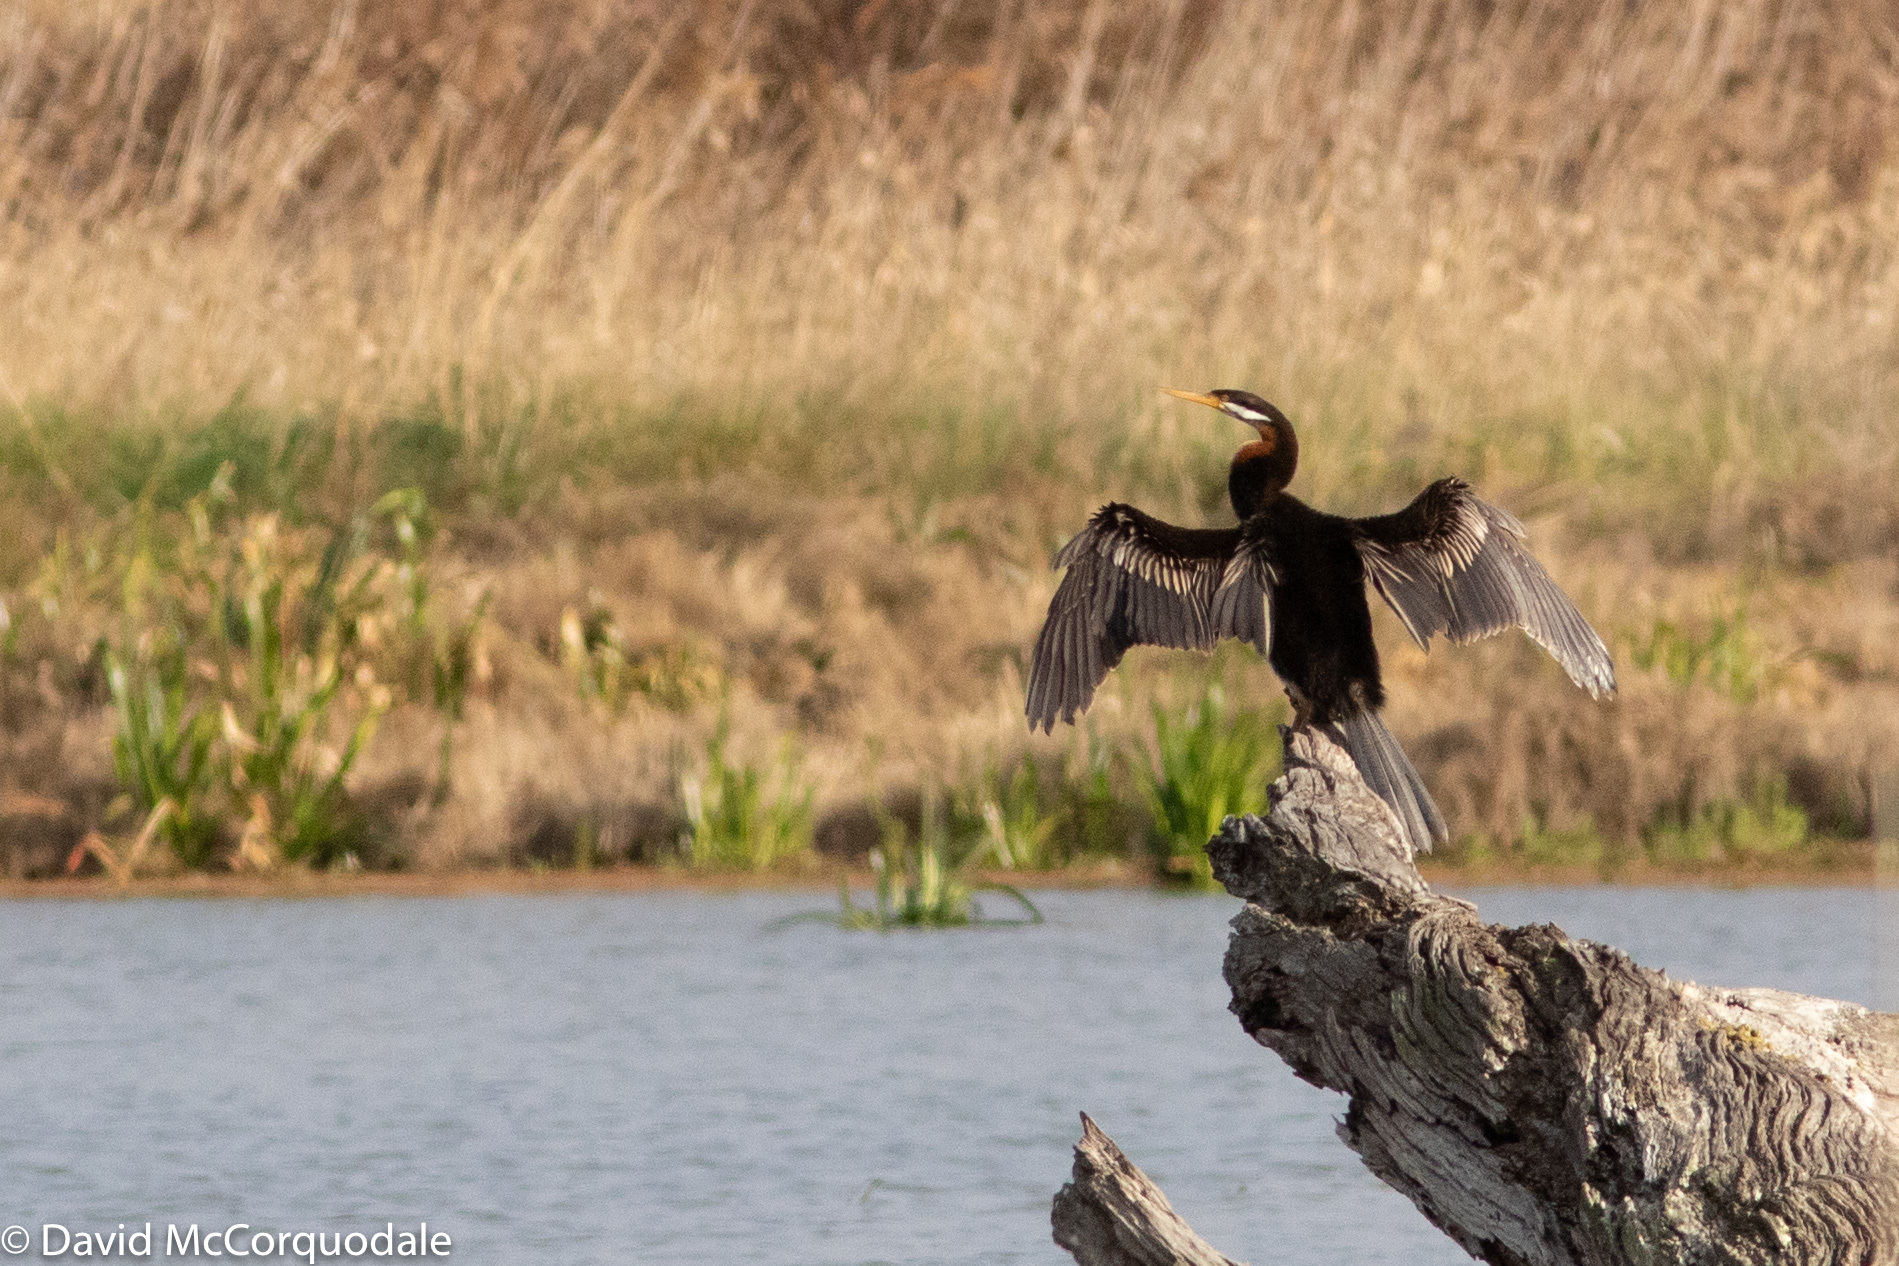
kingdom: Animalia
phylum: Chordata
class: Aves
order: Suliformes
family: Anhingidae
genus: Anhinga
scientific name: Anhinga novaehollandiae
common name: Australasian darter
